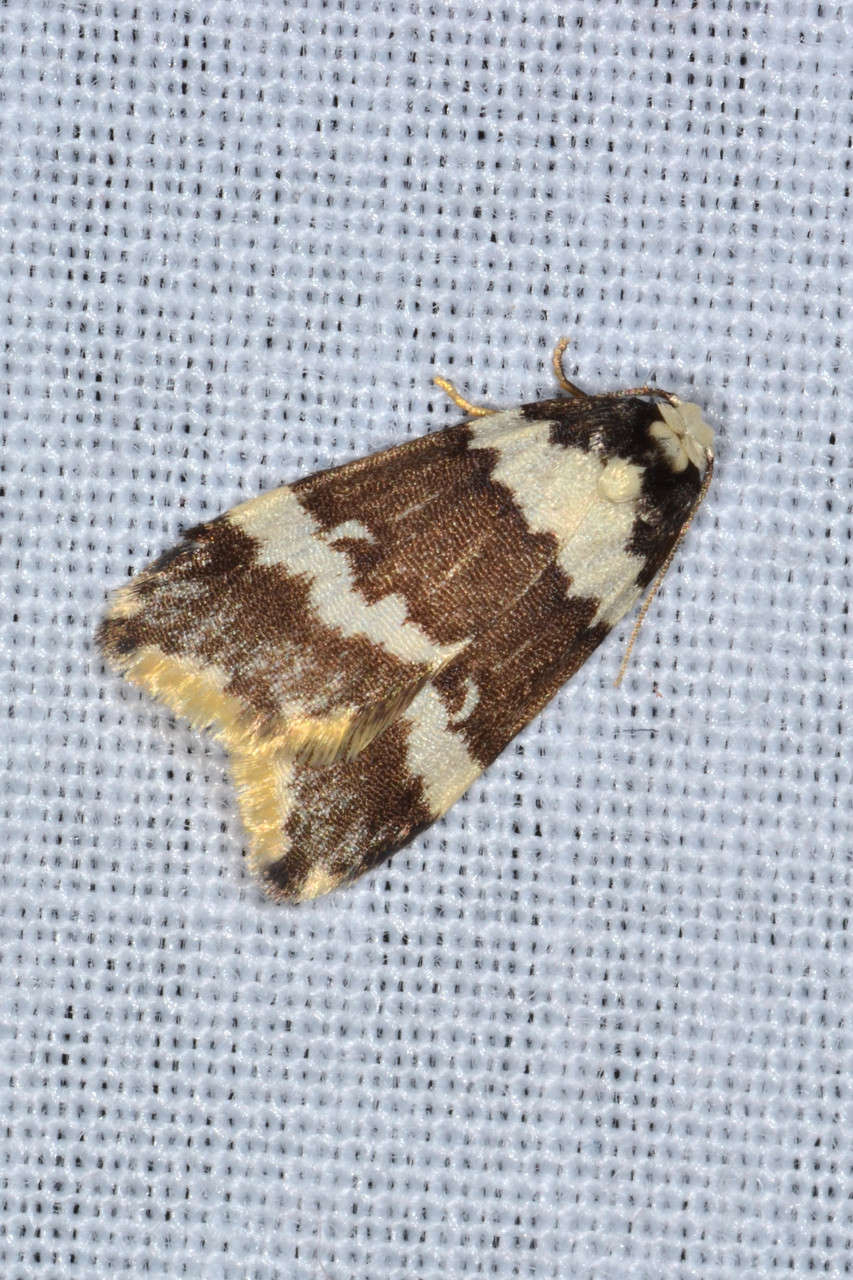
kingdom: Animalia
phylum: Arthropoda
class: Insecta
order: Lepidoptera
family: Erebidae
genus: Halone
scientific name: Halone sejuncta
